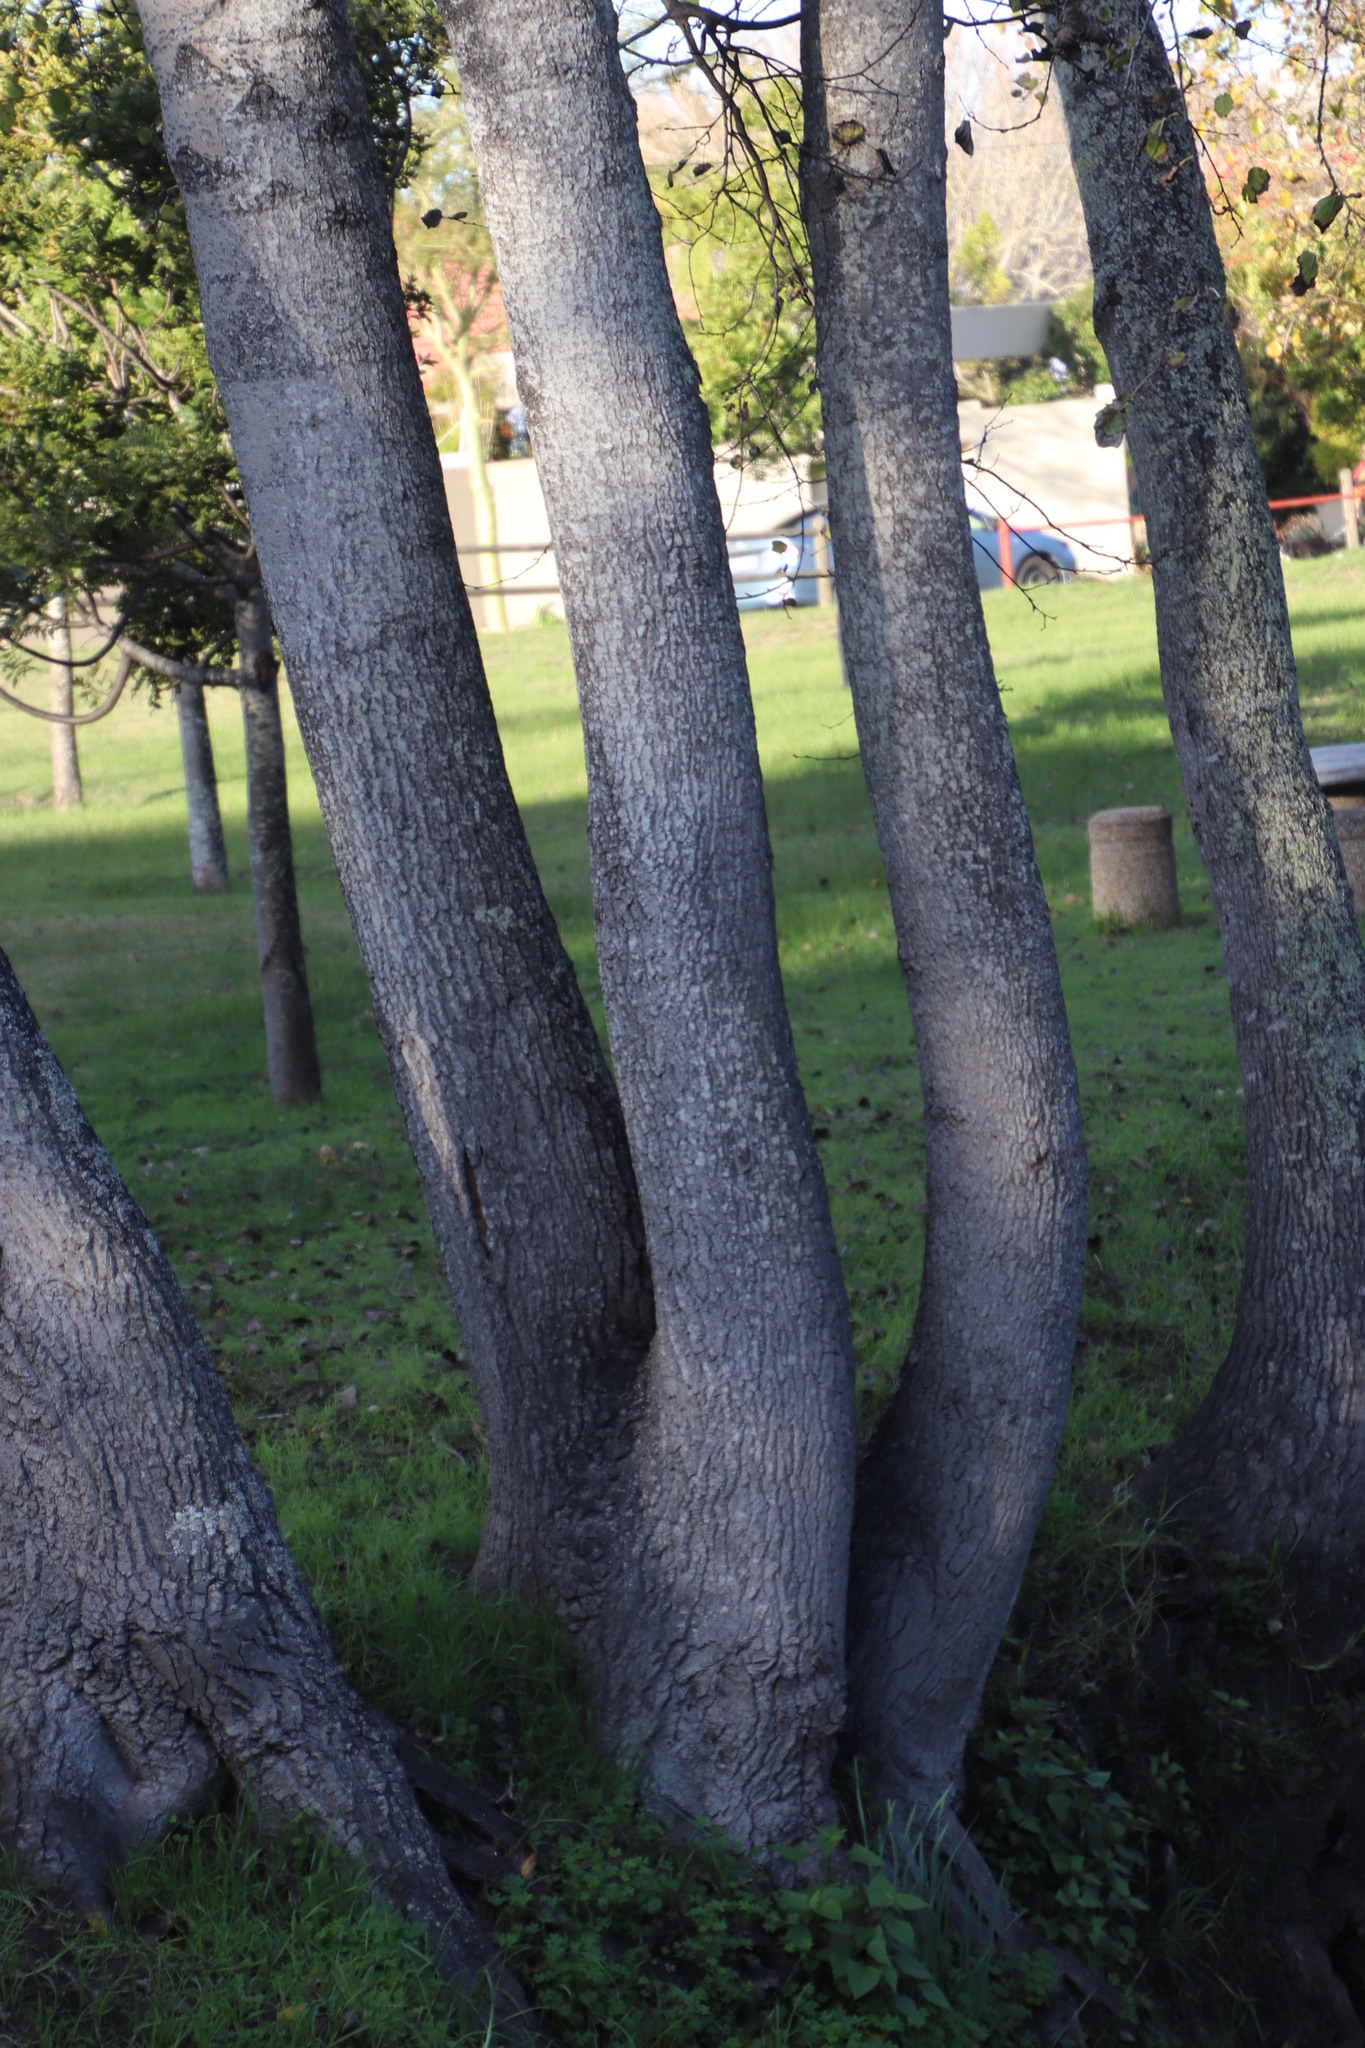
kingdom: Plantae
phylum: Tracheophyta
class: Magnoliopsida
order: Malpighiales
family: Salicaceae
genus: Populus
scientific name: Populus canescens
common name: Gray poplar
